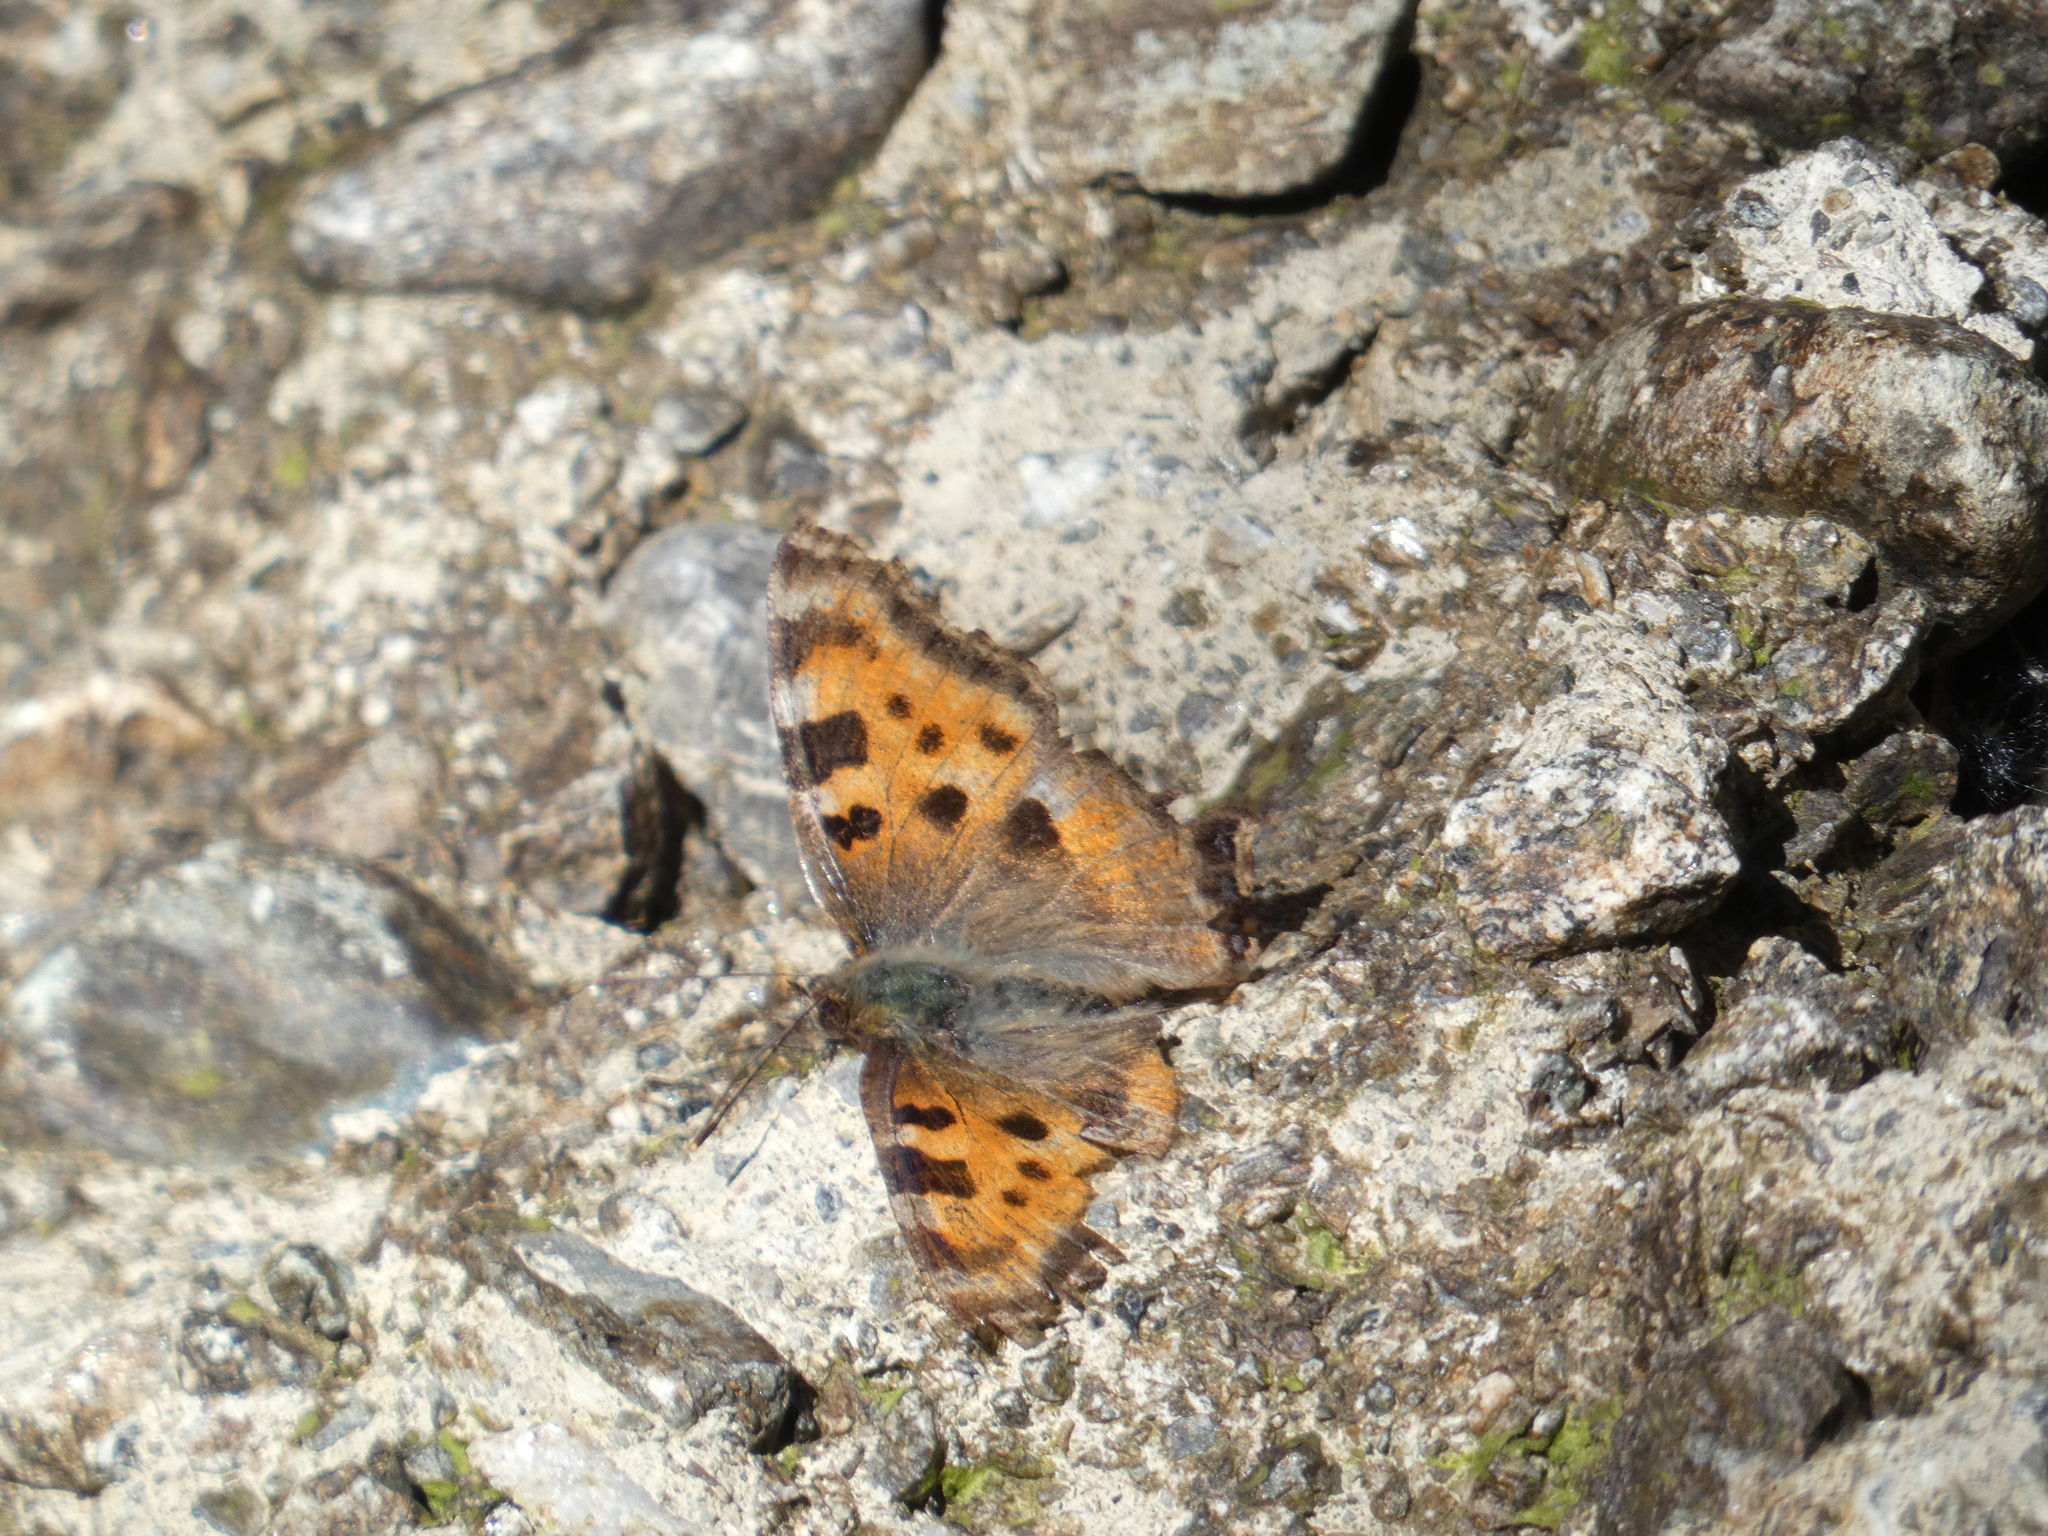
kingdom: Animalia
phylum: Arthropoda
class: Insecta
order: Lepidoptera
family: Nymphalidae
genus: Nymphalis
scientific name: Nymphalis polychloros
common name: Large tortoiseshell
